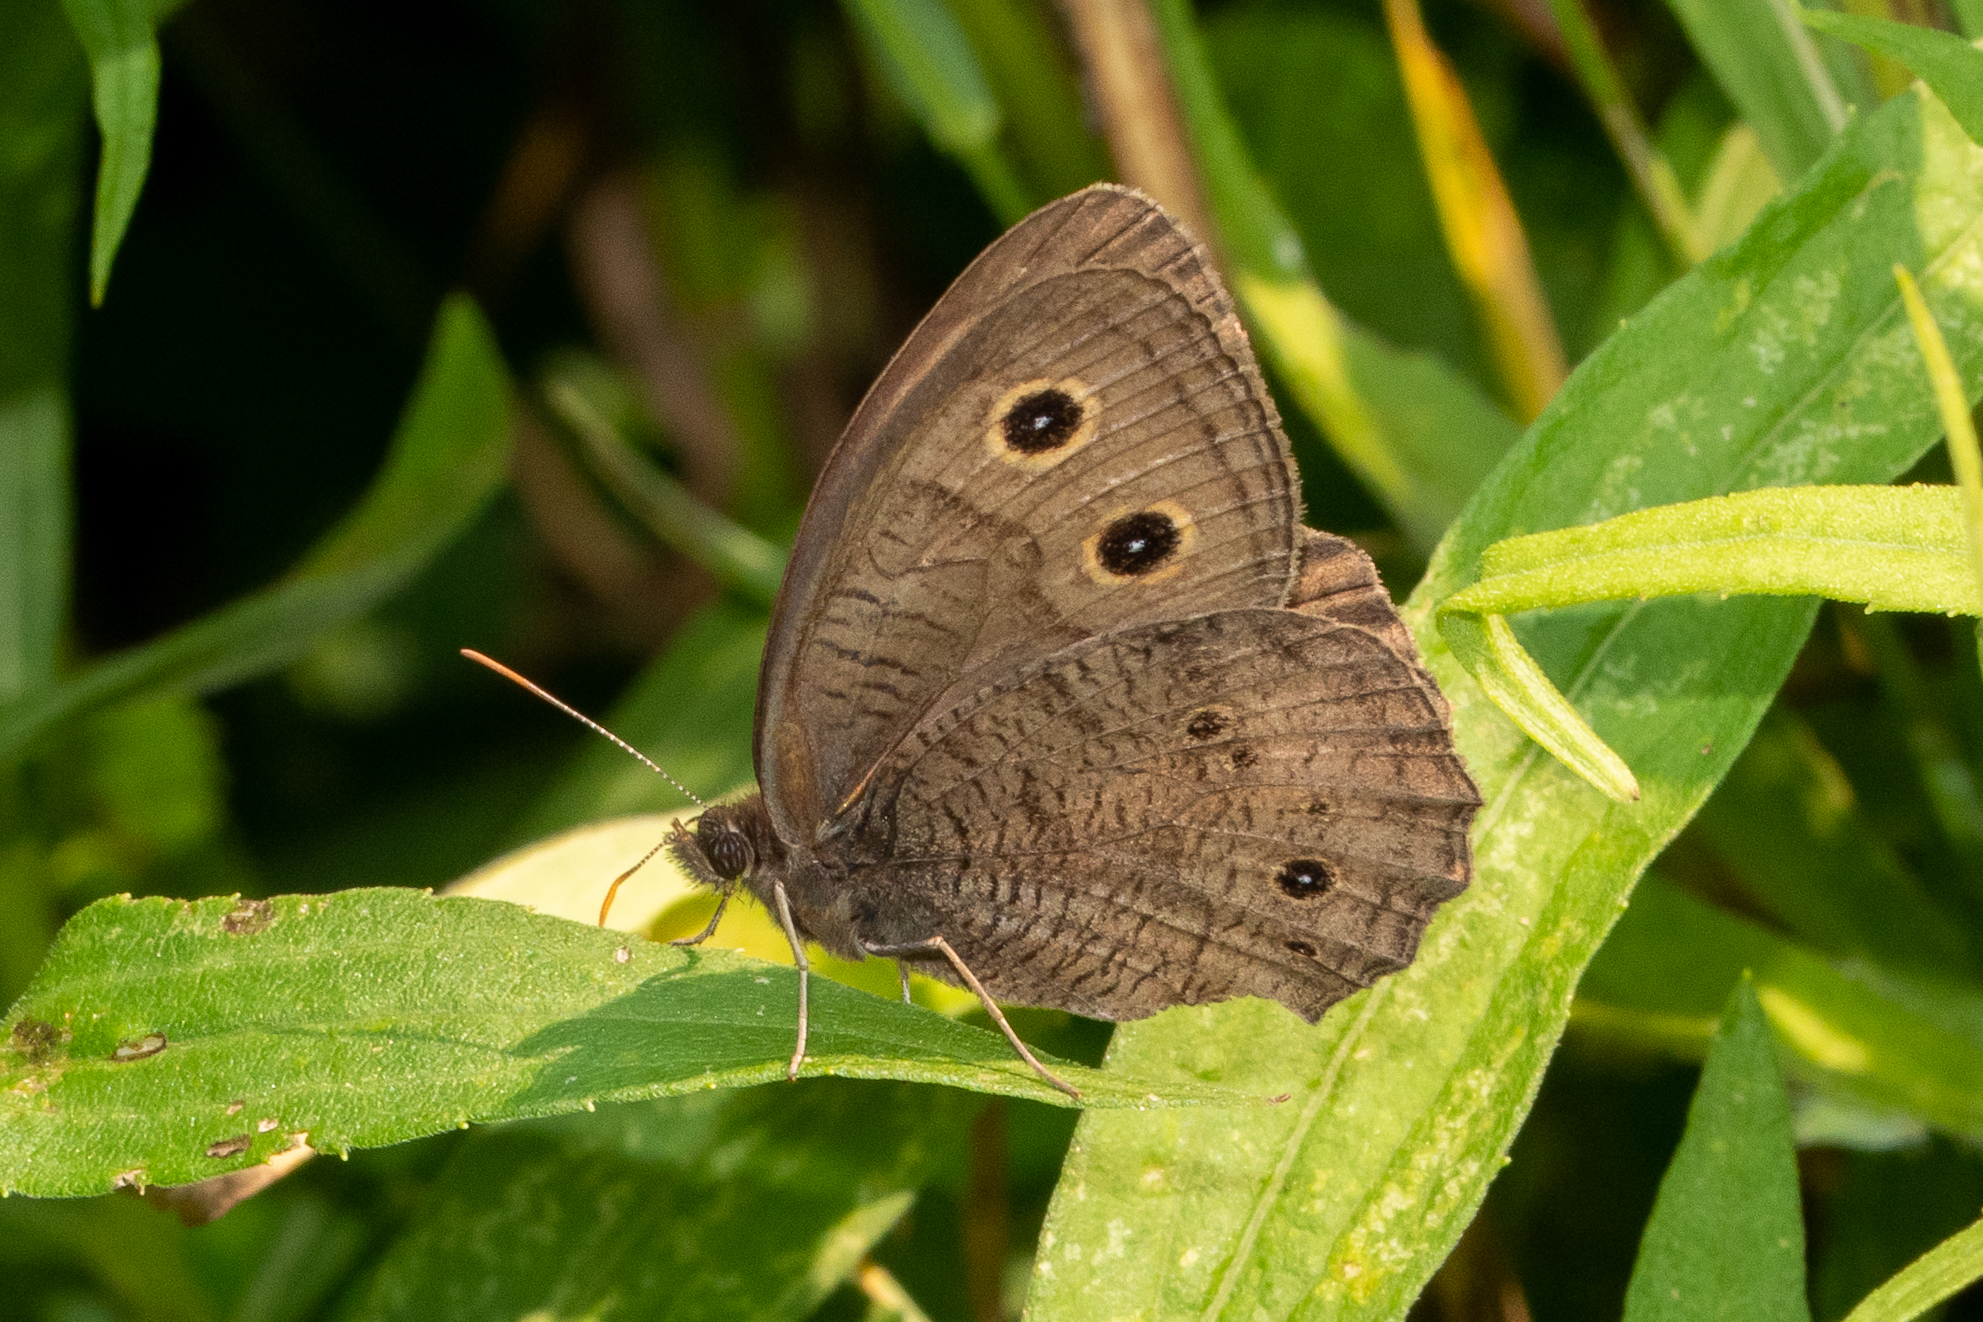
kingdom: Animalia
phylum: Arthropoda
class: Insecta
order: Lepidoptera
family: Nymphalidae
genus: Cercyonis
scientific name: Cercyonis pegala
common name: Common wood-nymph
